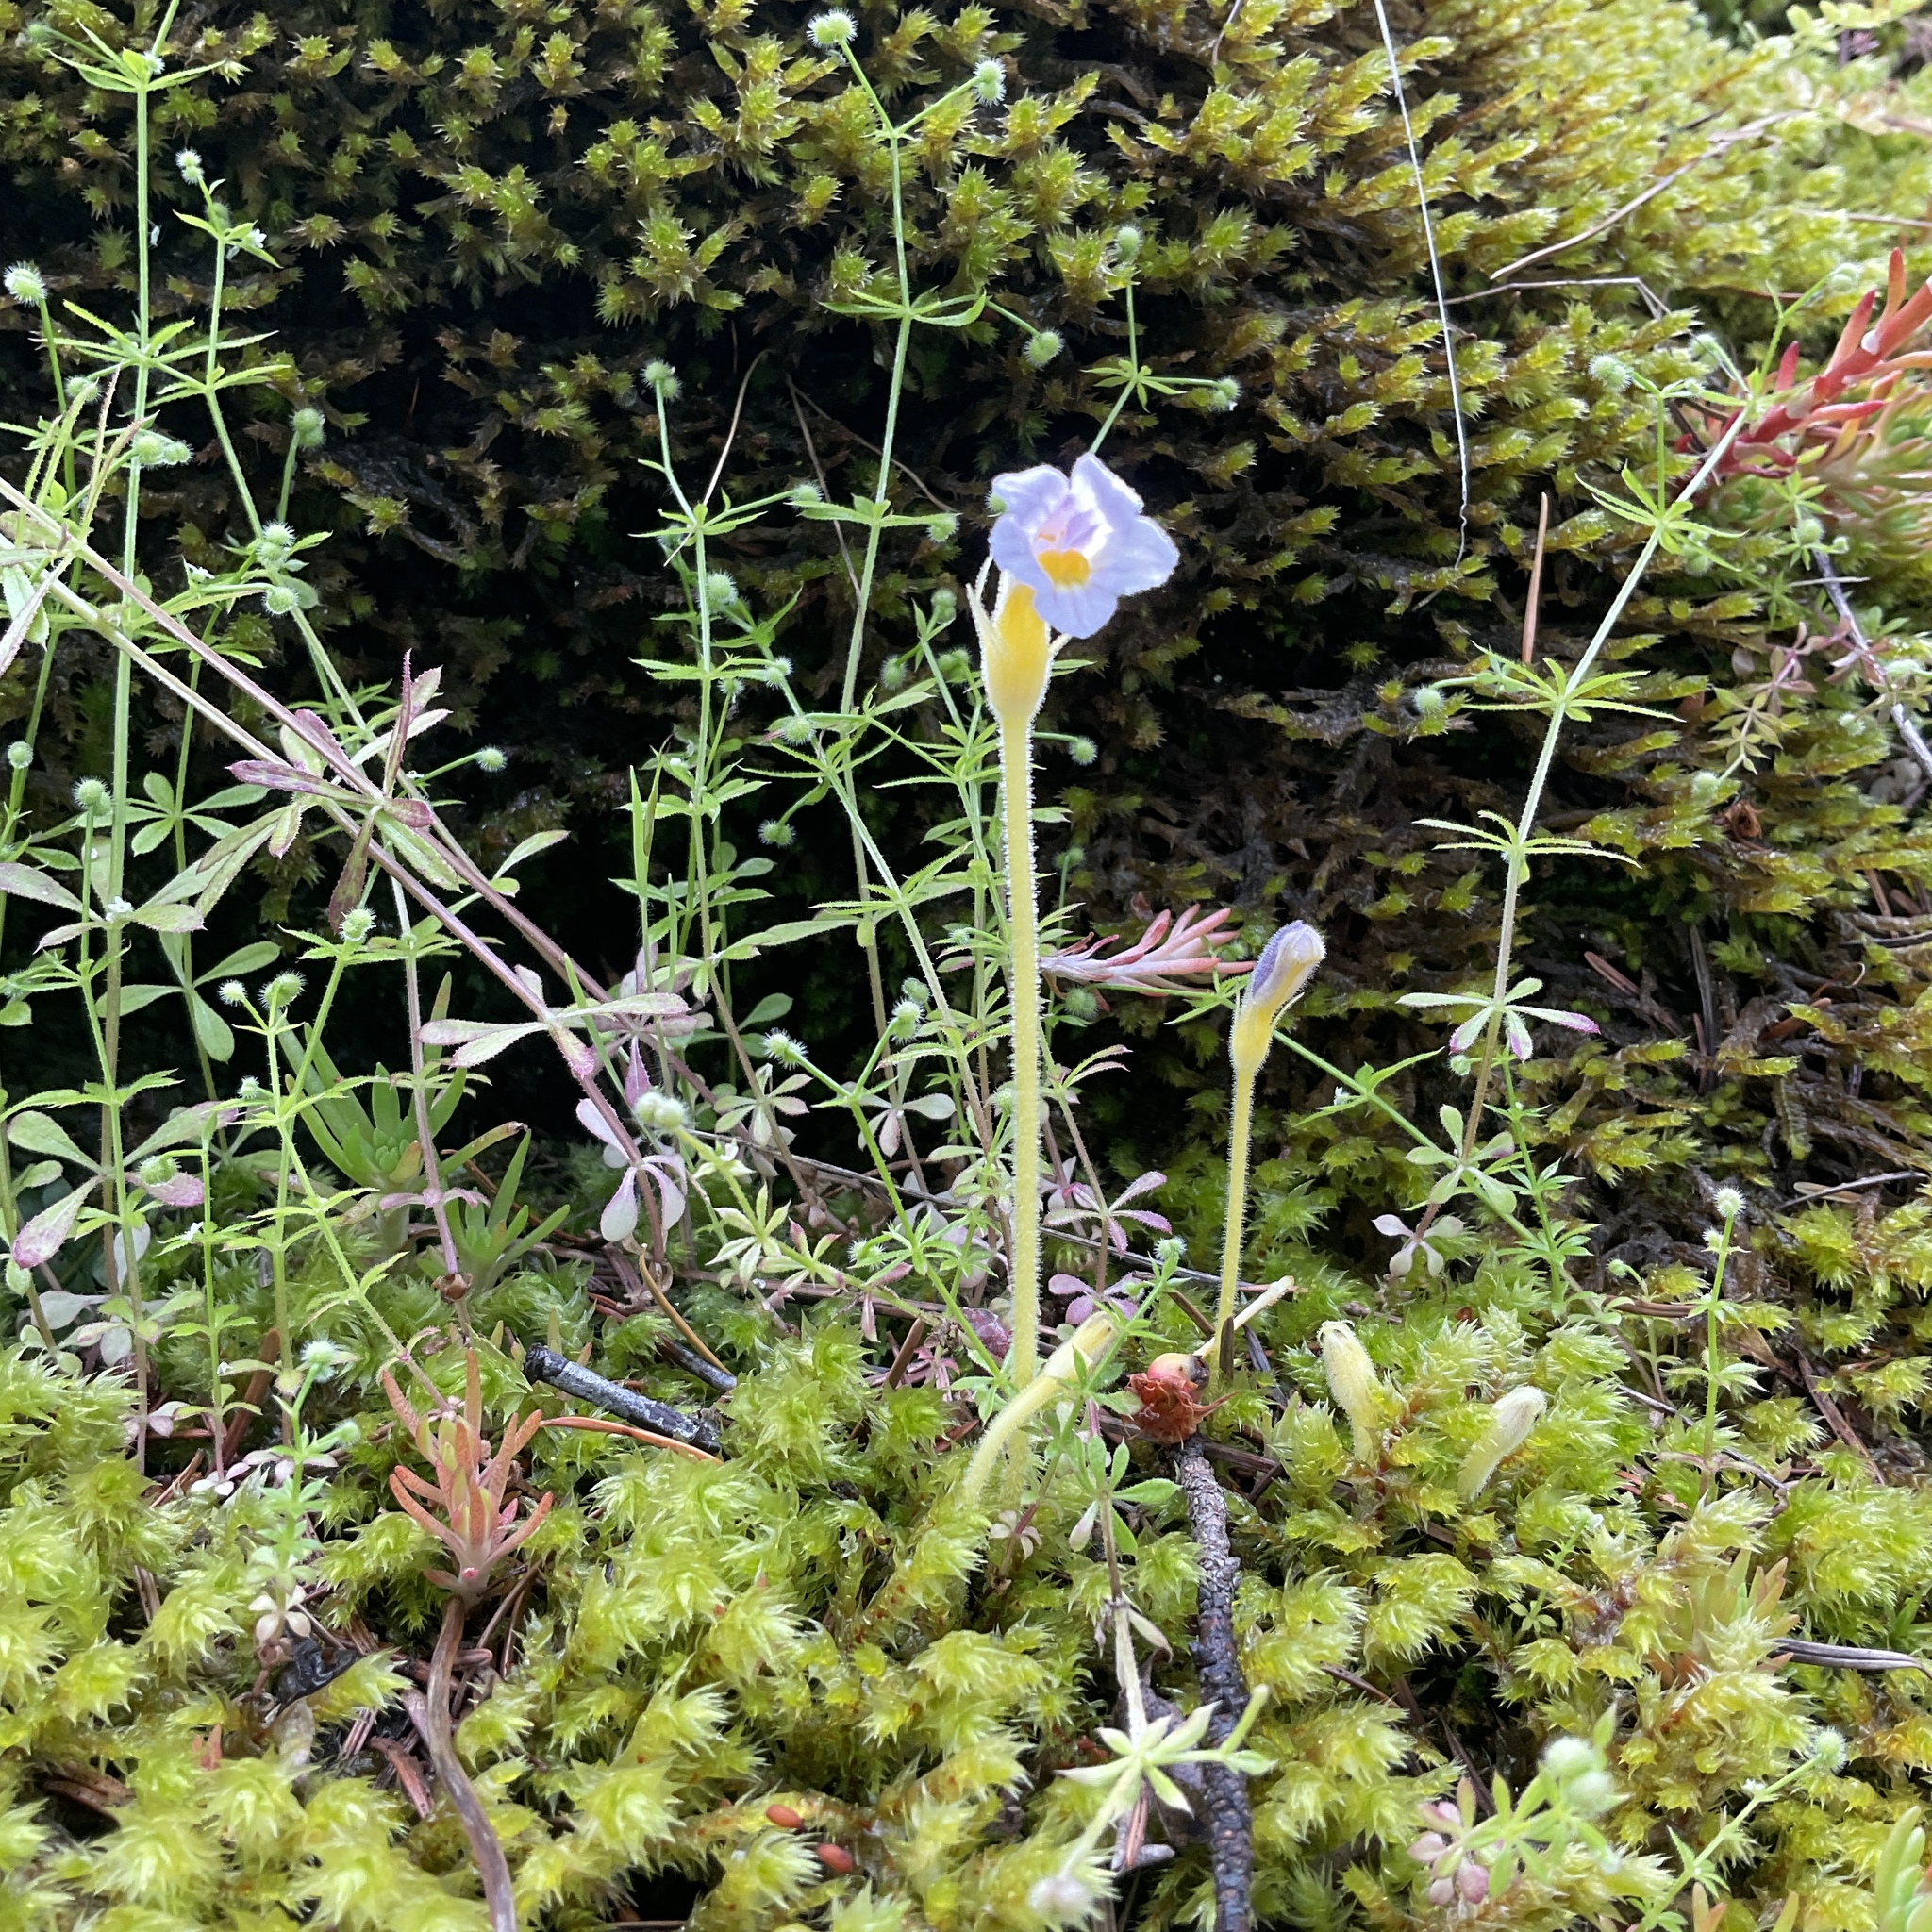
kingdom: Plantae
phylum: Tracheophyta
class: Magnoliopsida
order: Lamiales
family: Orobanchaceae
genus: Aphyllon
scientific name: Aphyllon uniflorum
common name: One-flowered broomrape
